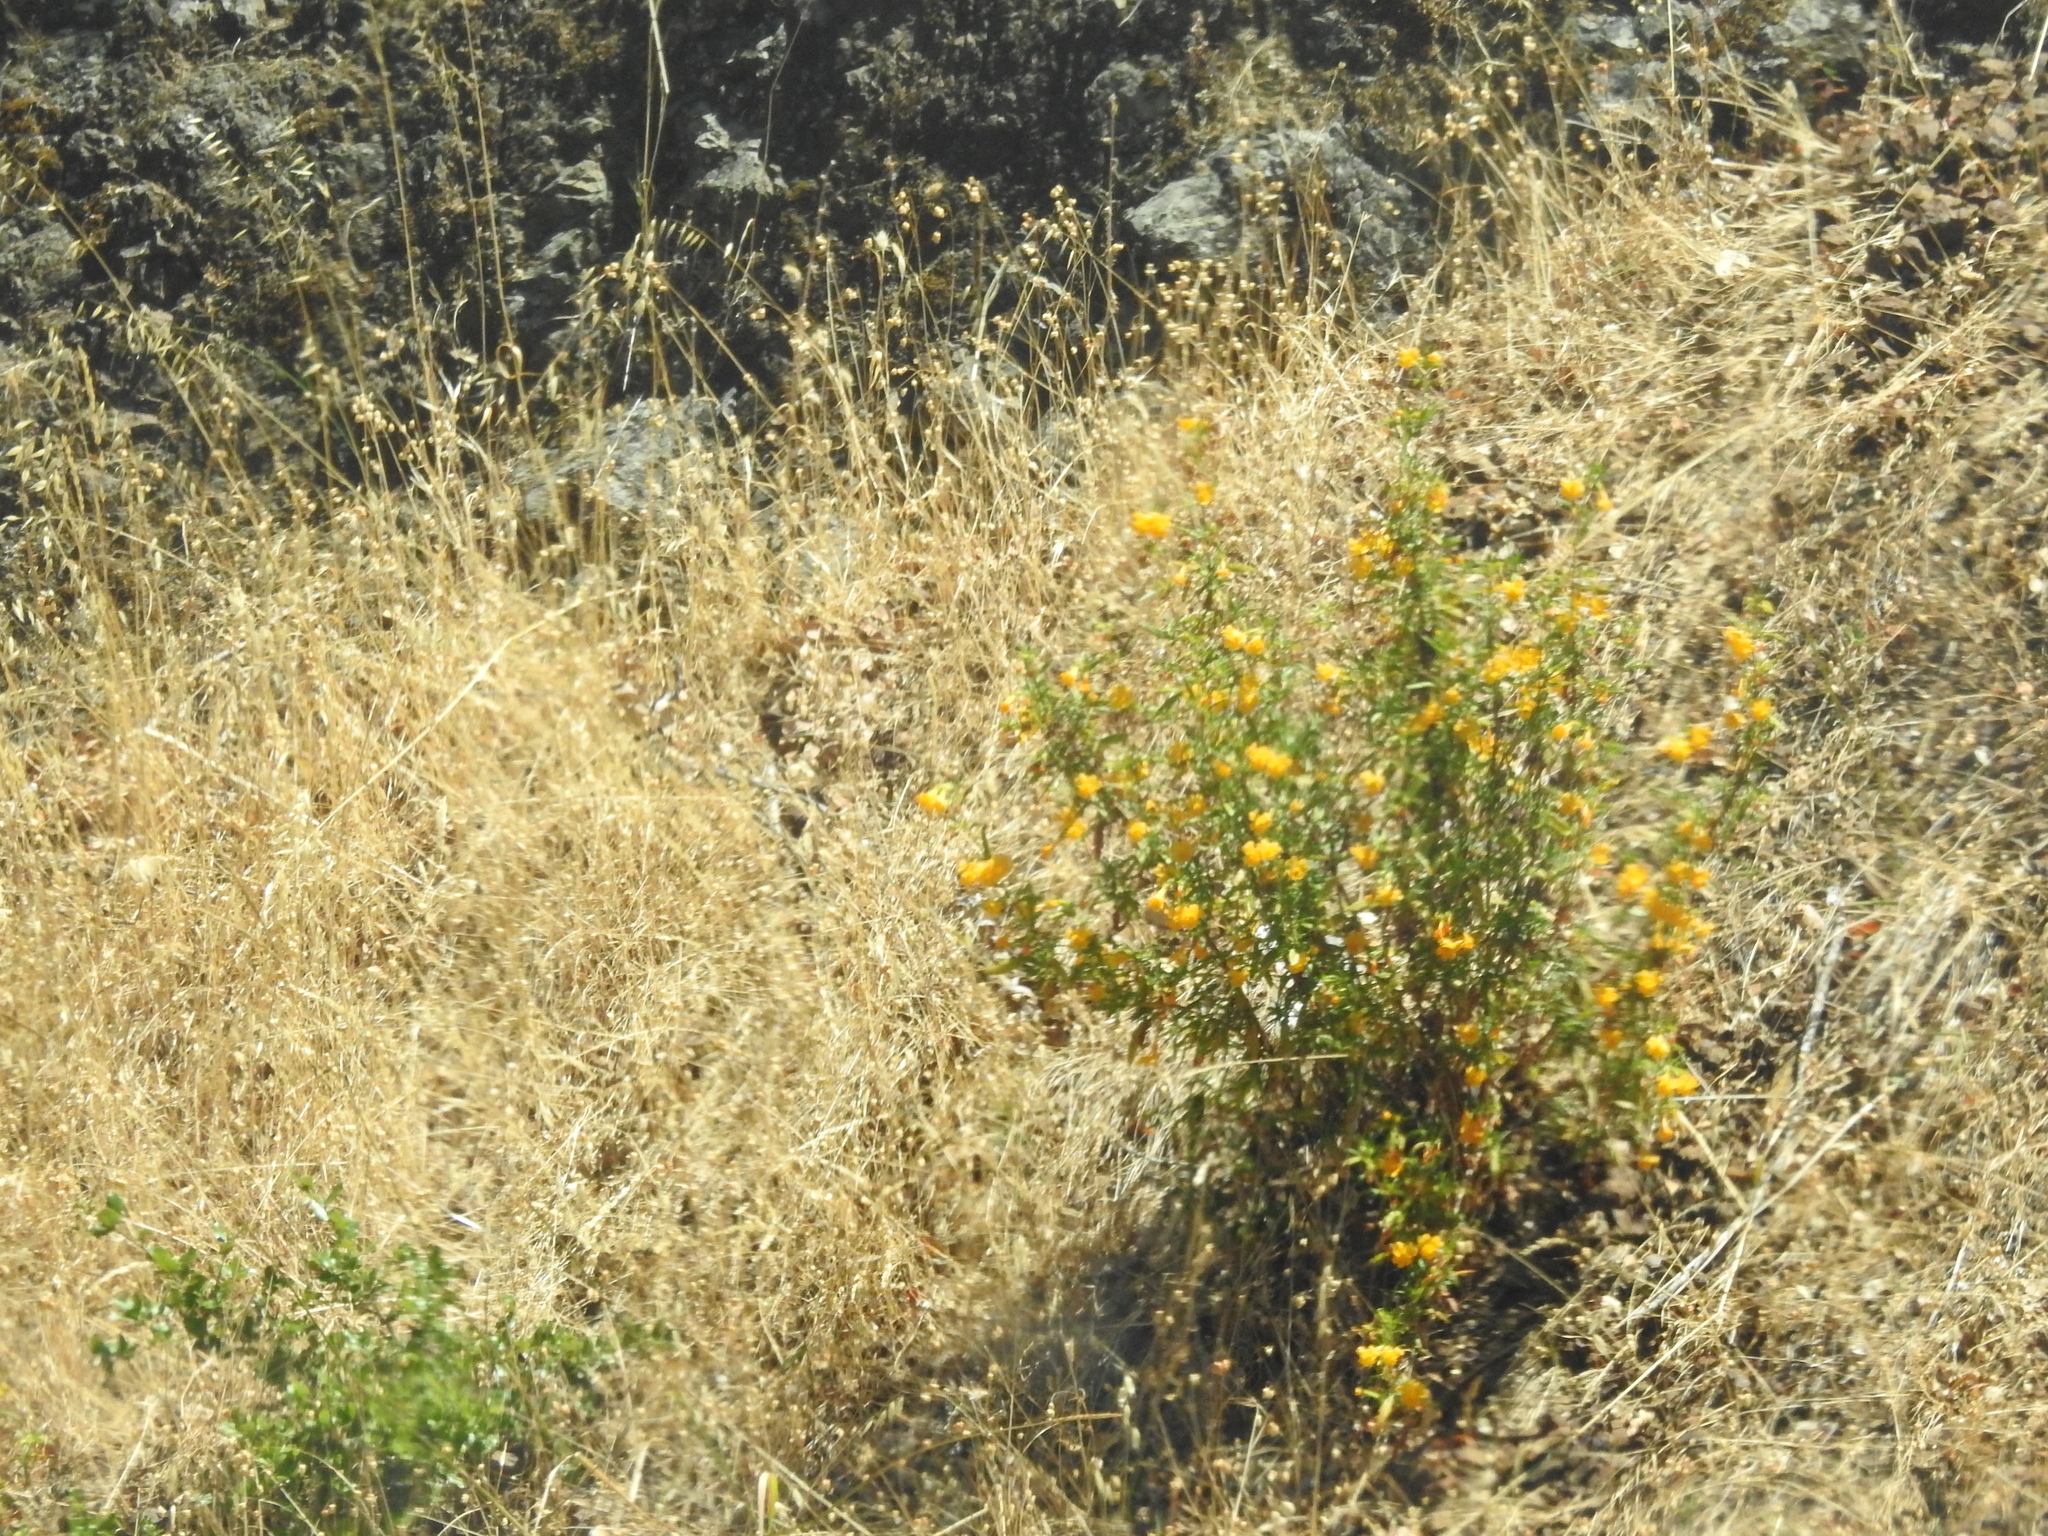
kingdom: Plantae
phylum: Tracheophyta
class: Magnoliopsida
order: Lamiales
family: Phrymaceae
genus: Diplacus
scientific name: Diplacus aurantiacus
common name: Bush monkey-flower
